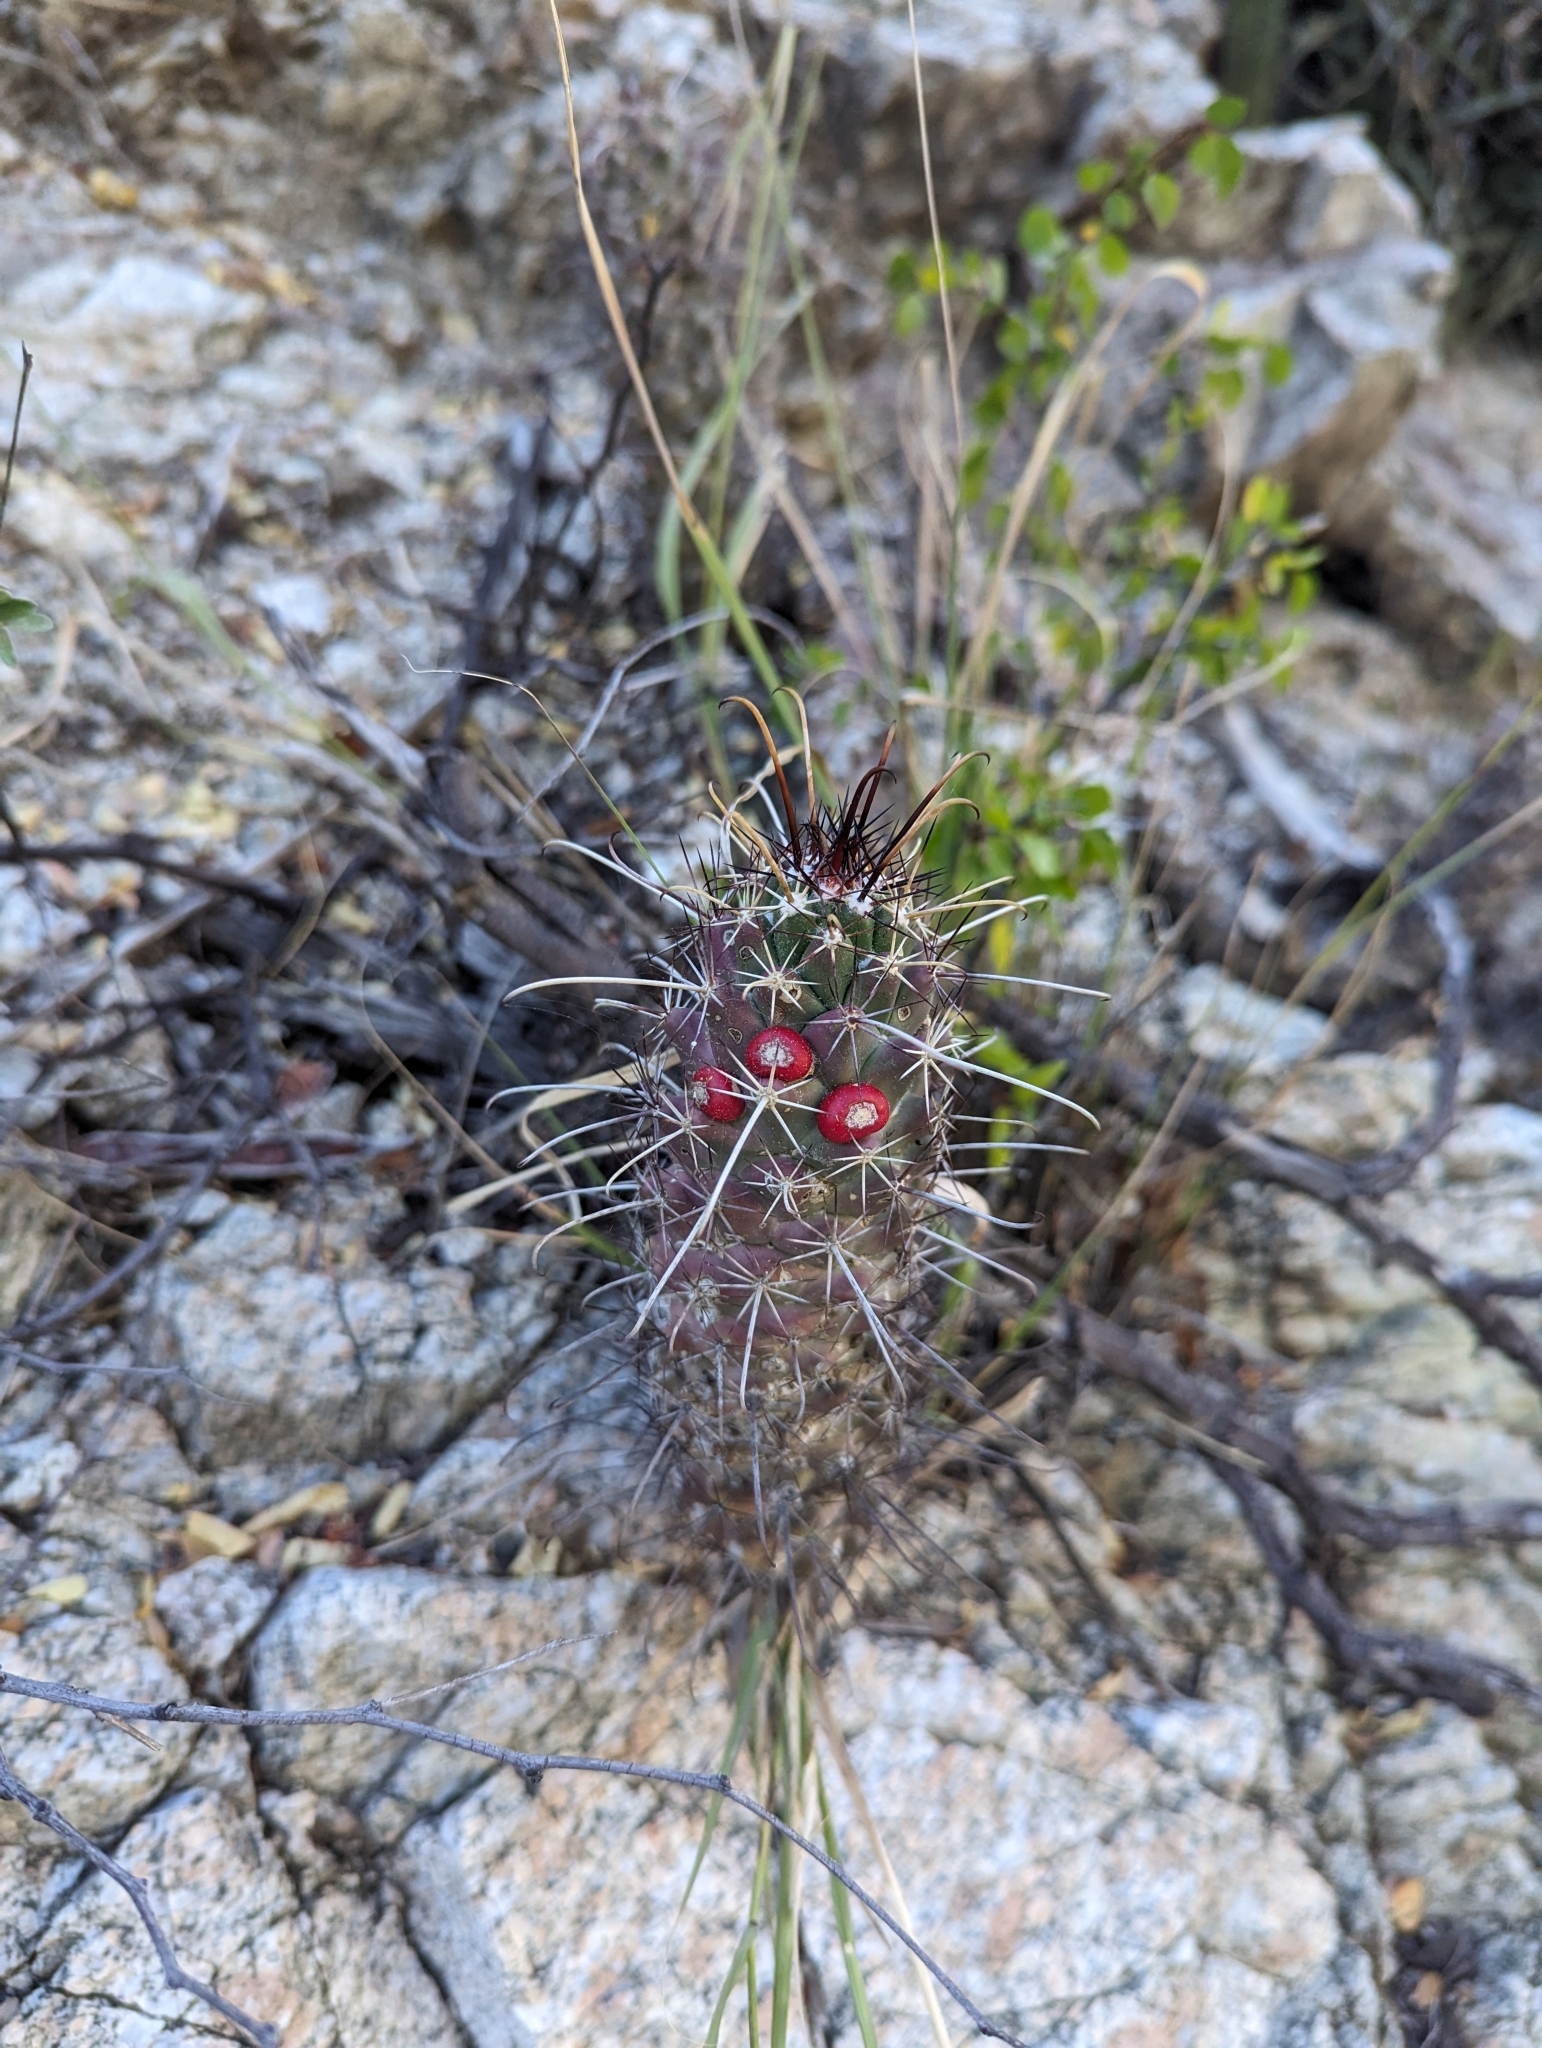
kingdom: Plantae
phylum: Tracheophyta
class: Magnoliopsida
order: Caryophyllales
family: Cactaceae
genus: Cochemiea
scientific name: Cochemiea poselgeri
